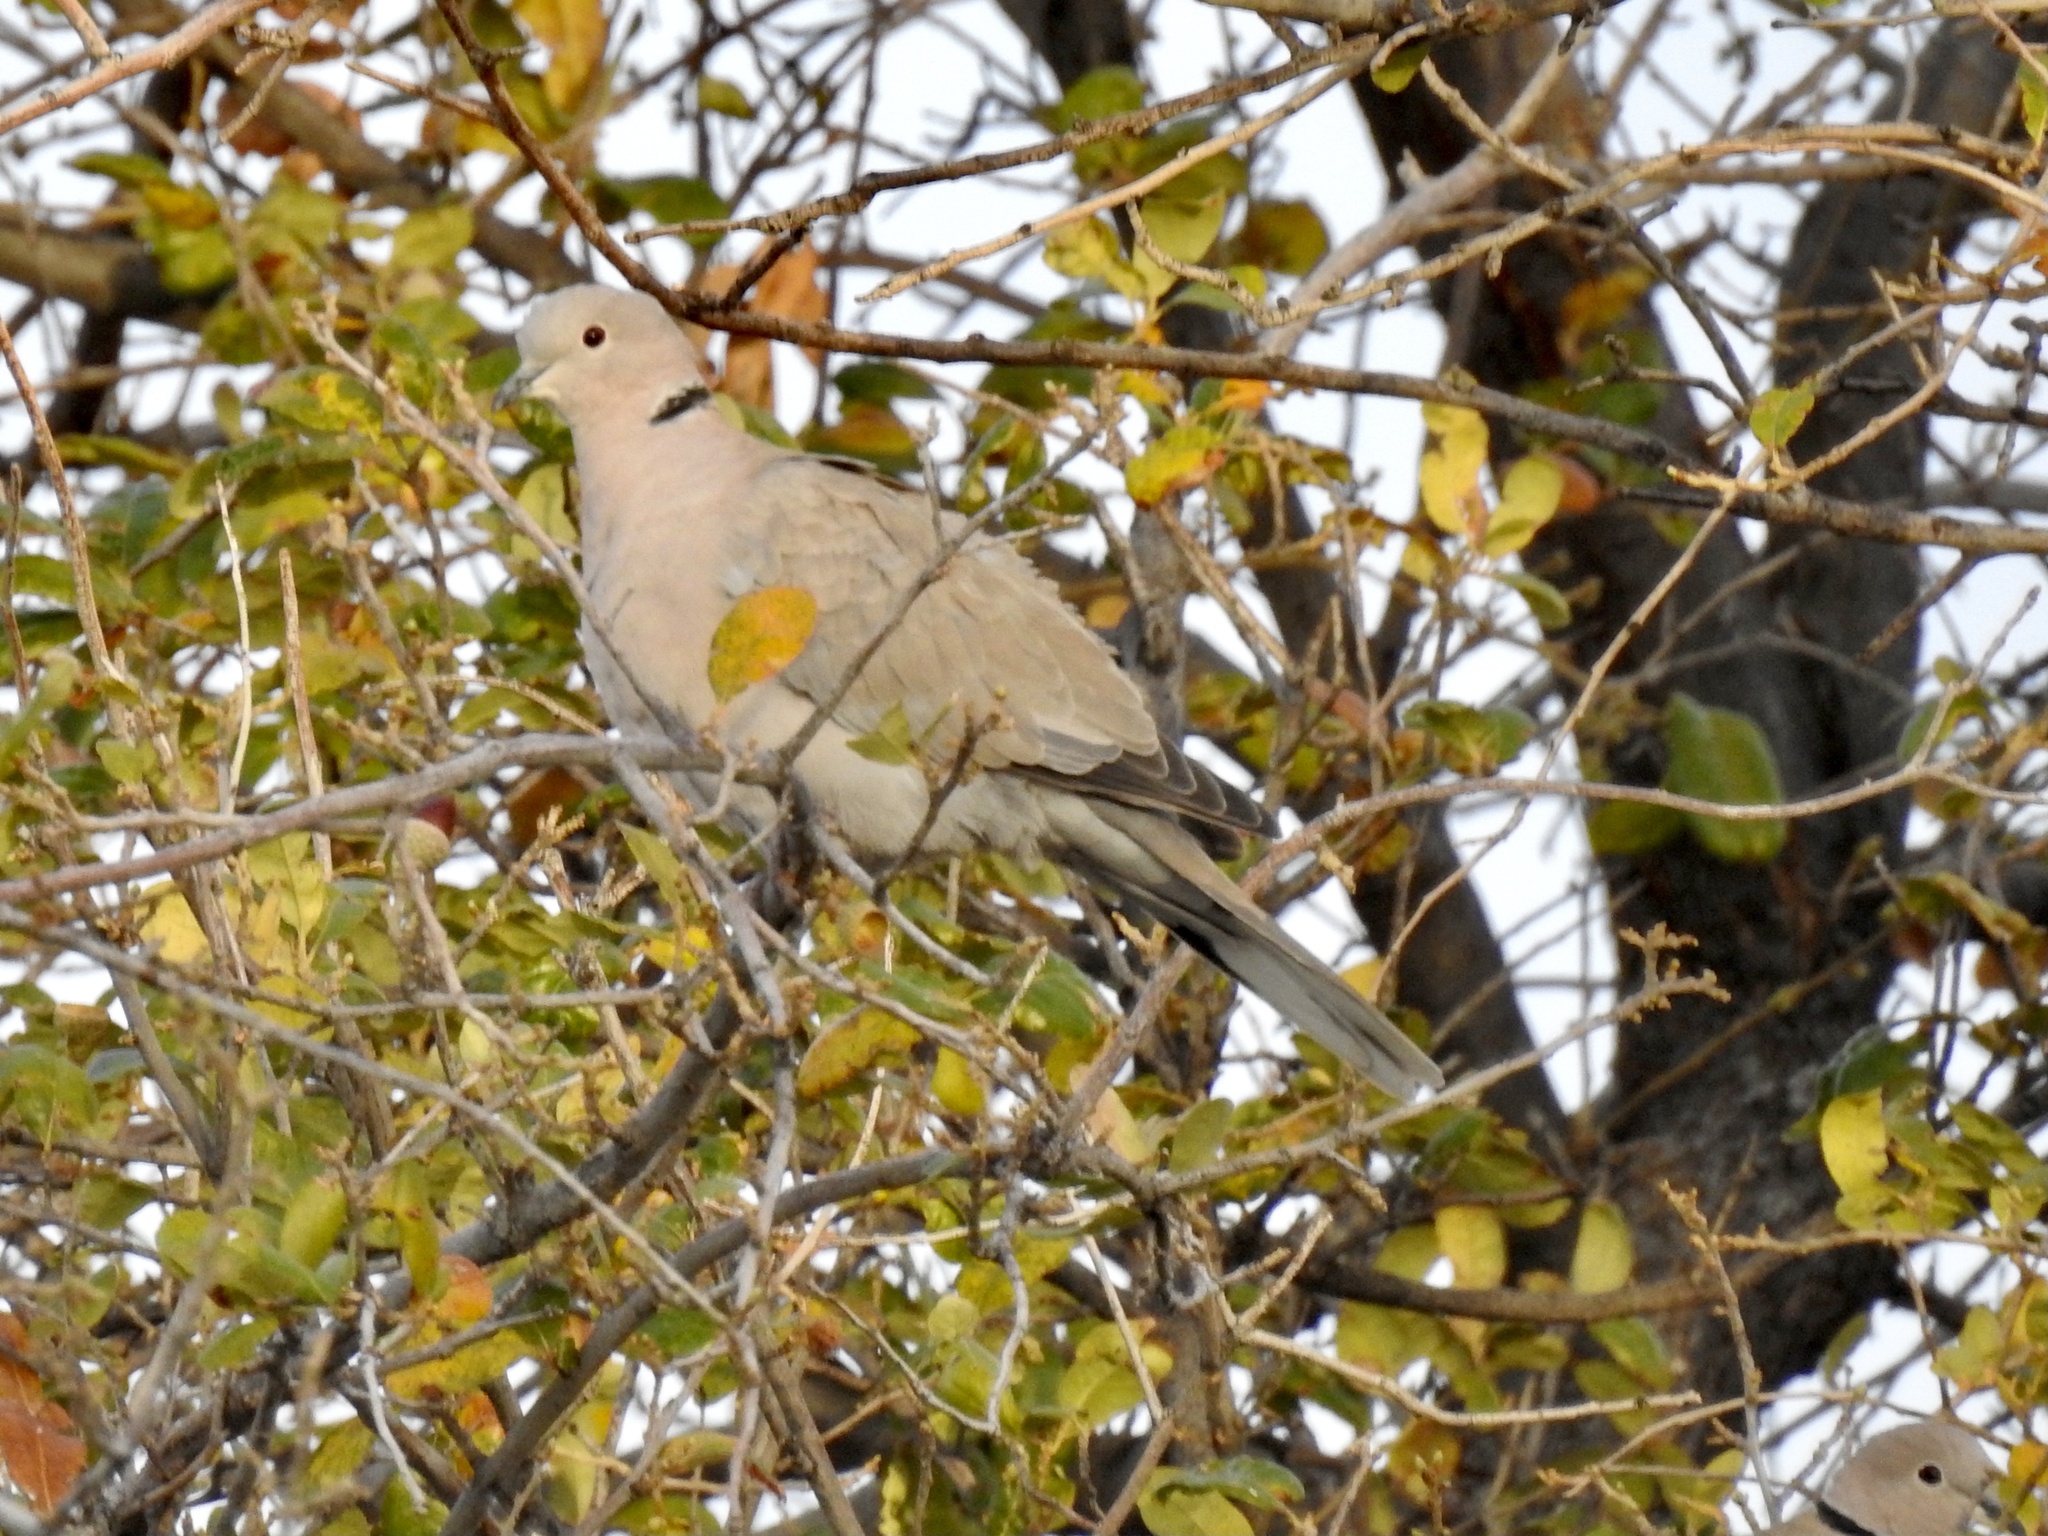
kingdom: Animalia
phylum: Chordata
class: Aves
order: Columbiformes
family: Columbidae
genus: Streptopelia
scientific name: Streptopelia decaocto
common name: Eurasian collared dove
